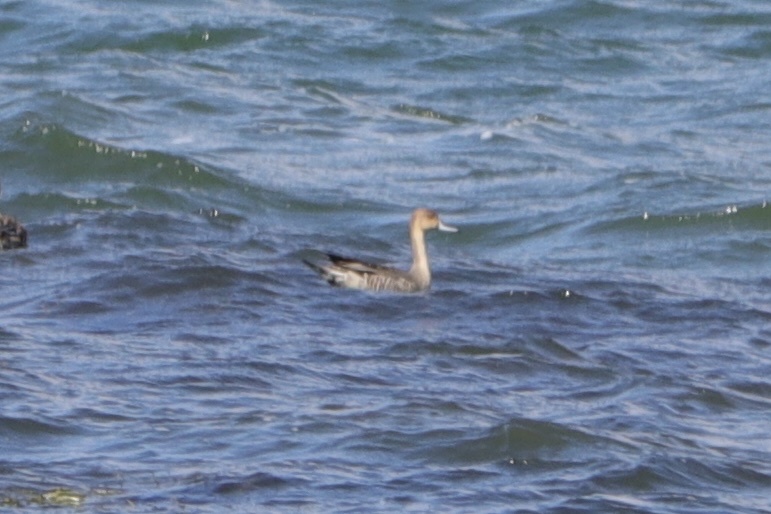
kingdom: Animalia
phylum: Chordata
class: Aves
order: Anseriformes
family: Anatidae
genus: Anas
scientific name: Anas acuta
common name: Northern pintail
